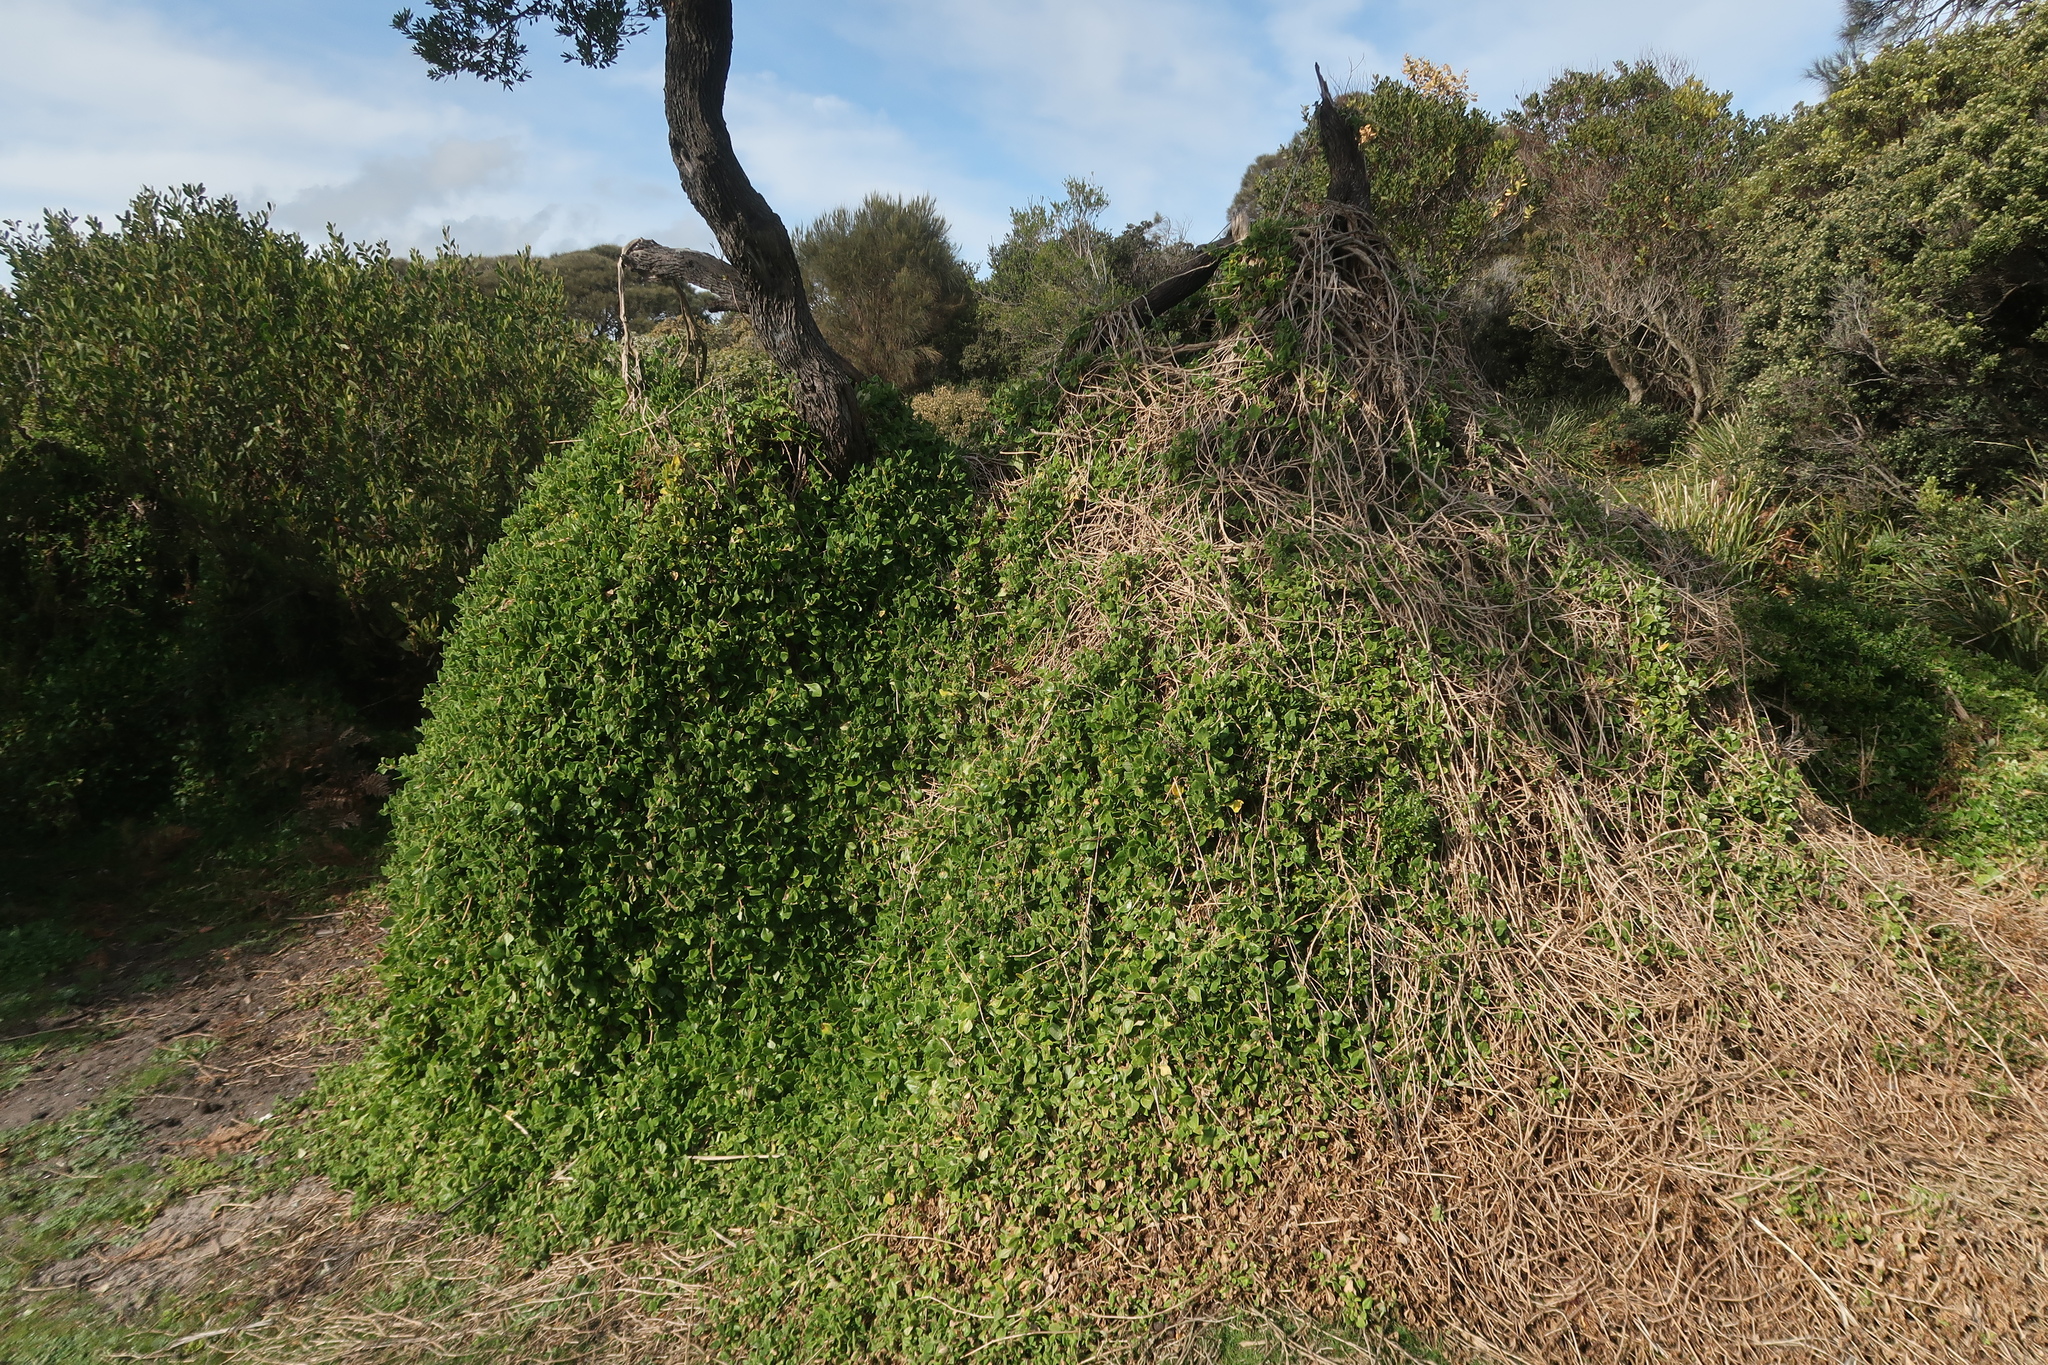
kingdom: Plantae
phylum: Tracheophyta
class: Magnoliopsida
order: Caryophyllales
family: Aizoaceae
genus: Tetragonia
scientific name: Tetragonia implexicoma
